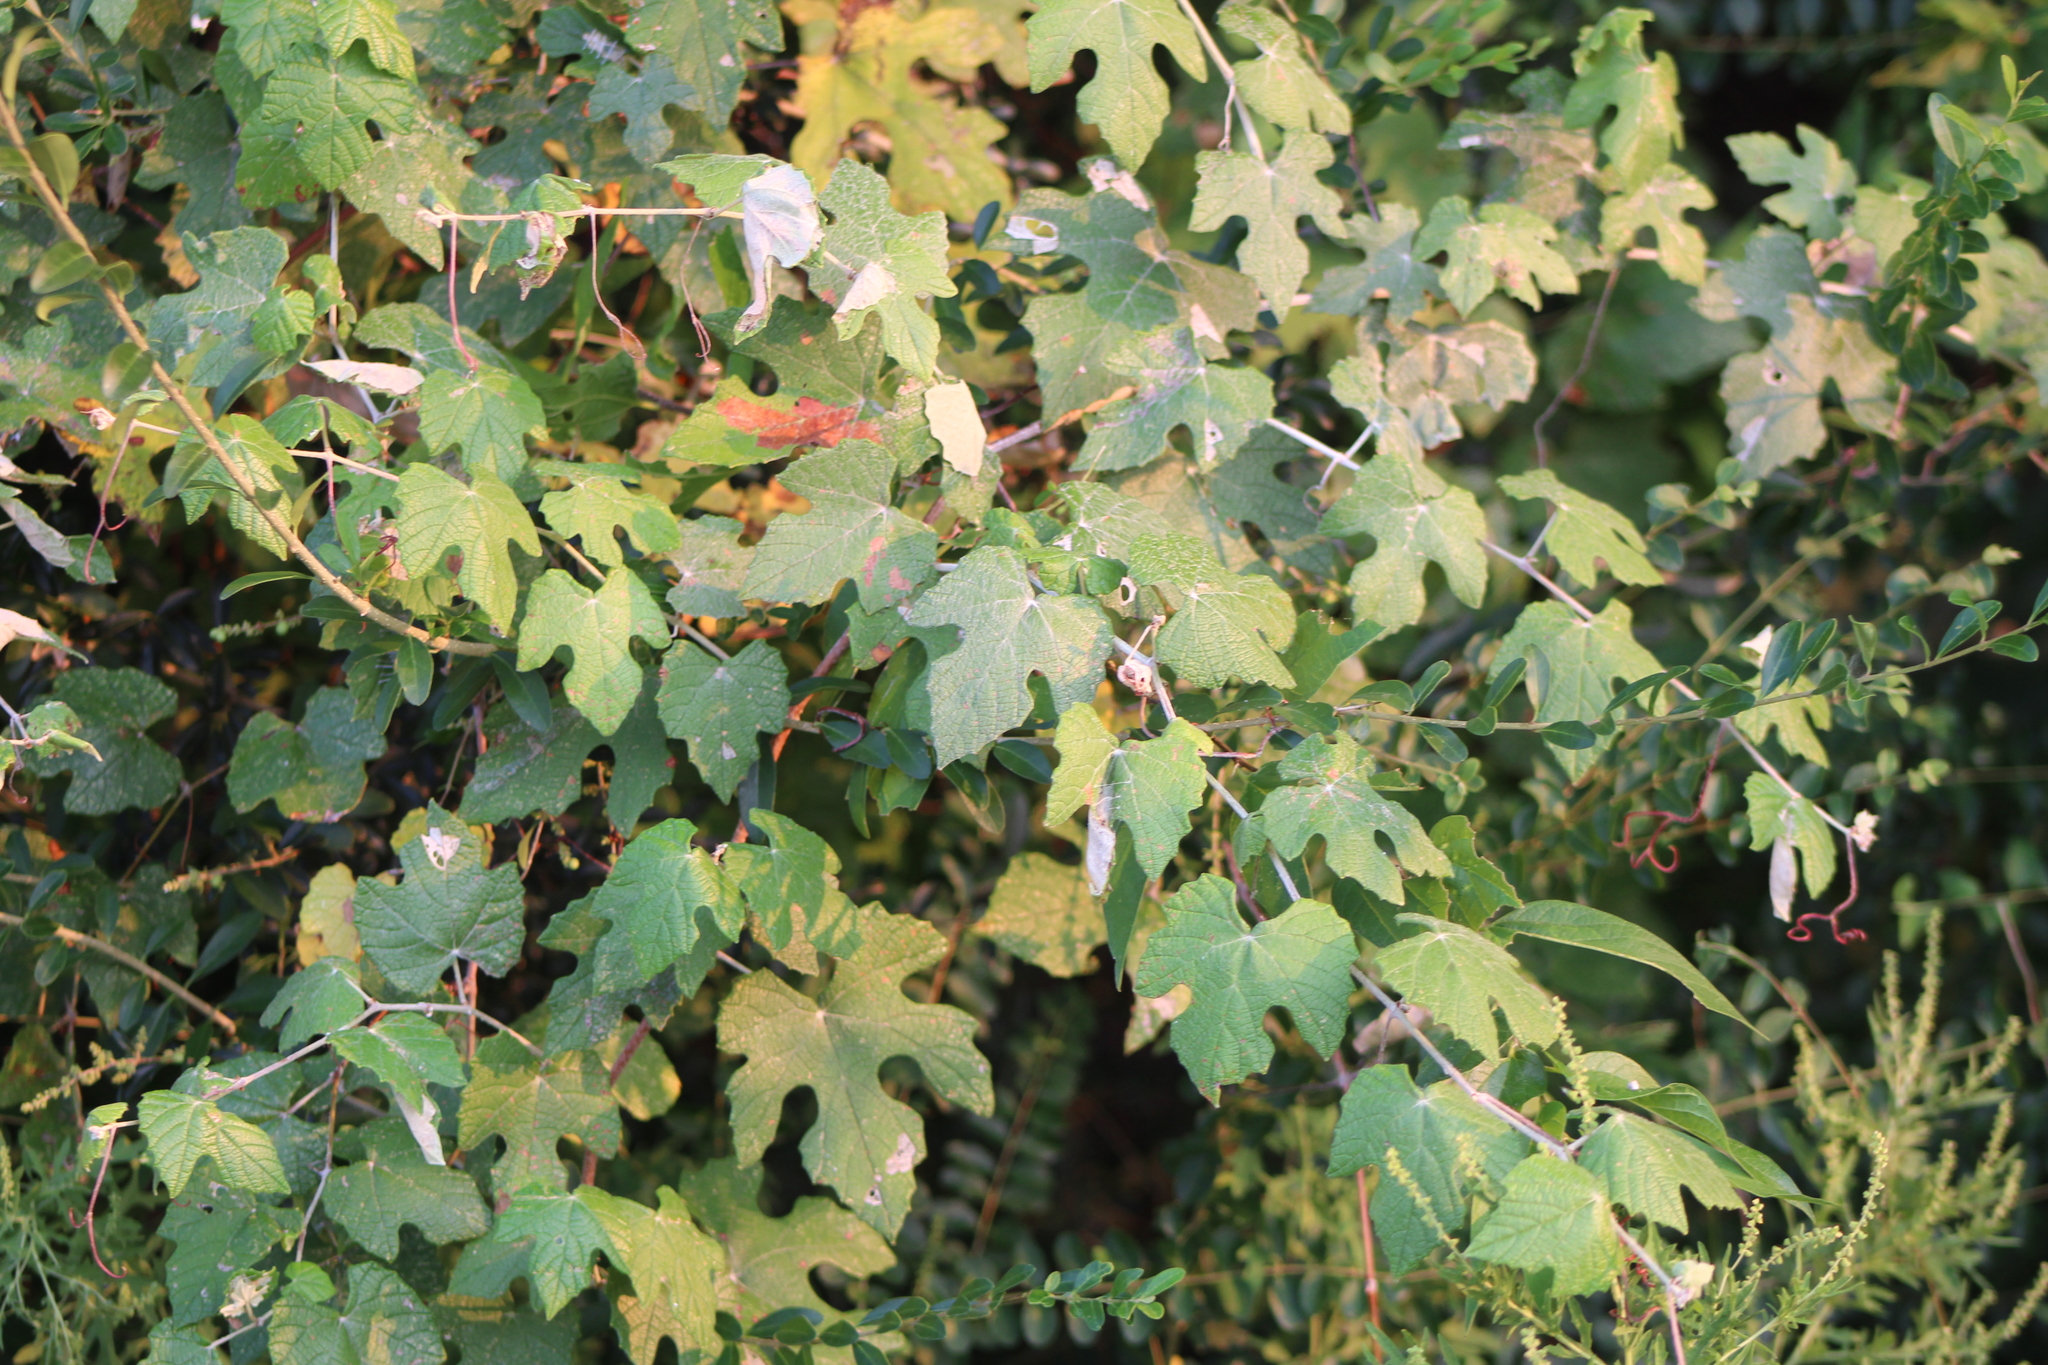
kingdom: Plantae
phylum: Tracheophyta
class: Magnoliopsida
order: Vitales
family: Vitaceae
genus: Vitis
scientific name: Vitis mustangensis
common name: Mustang grape
